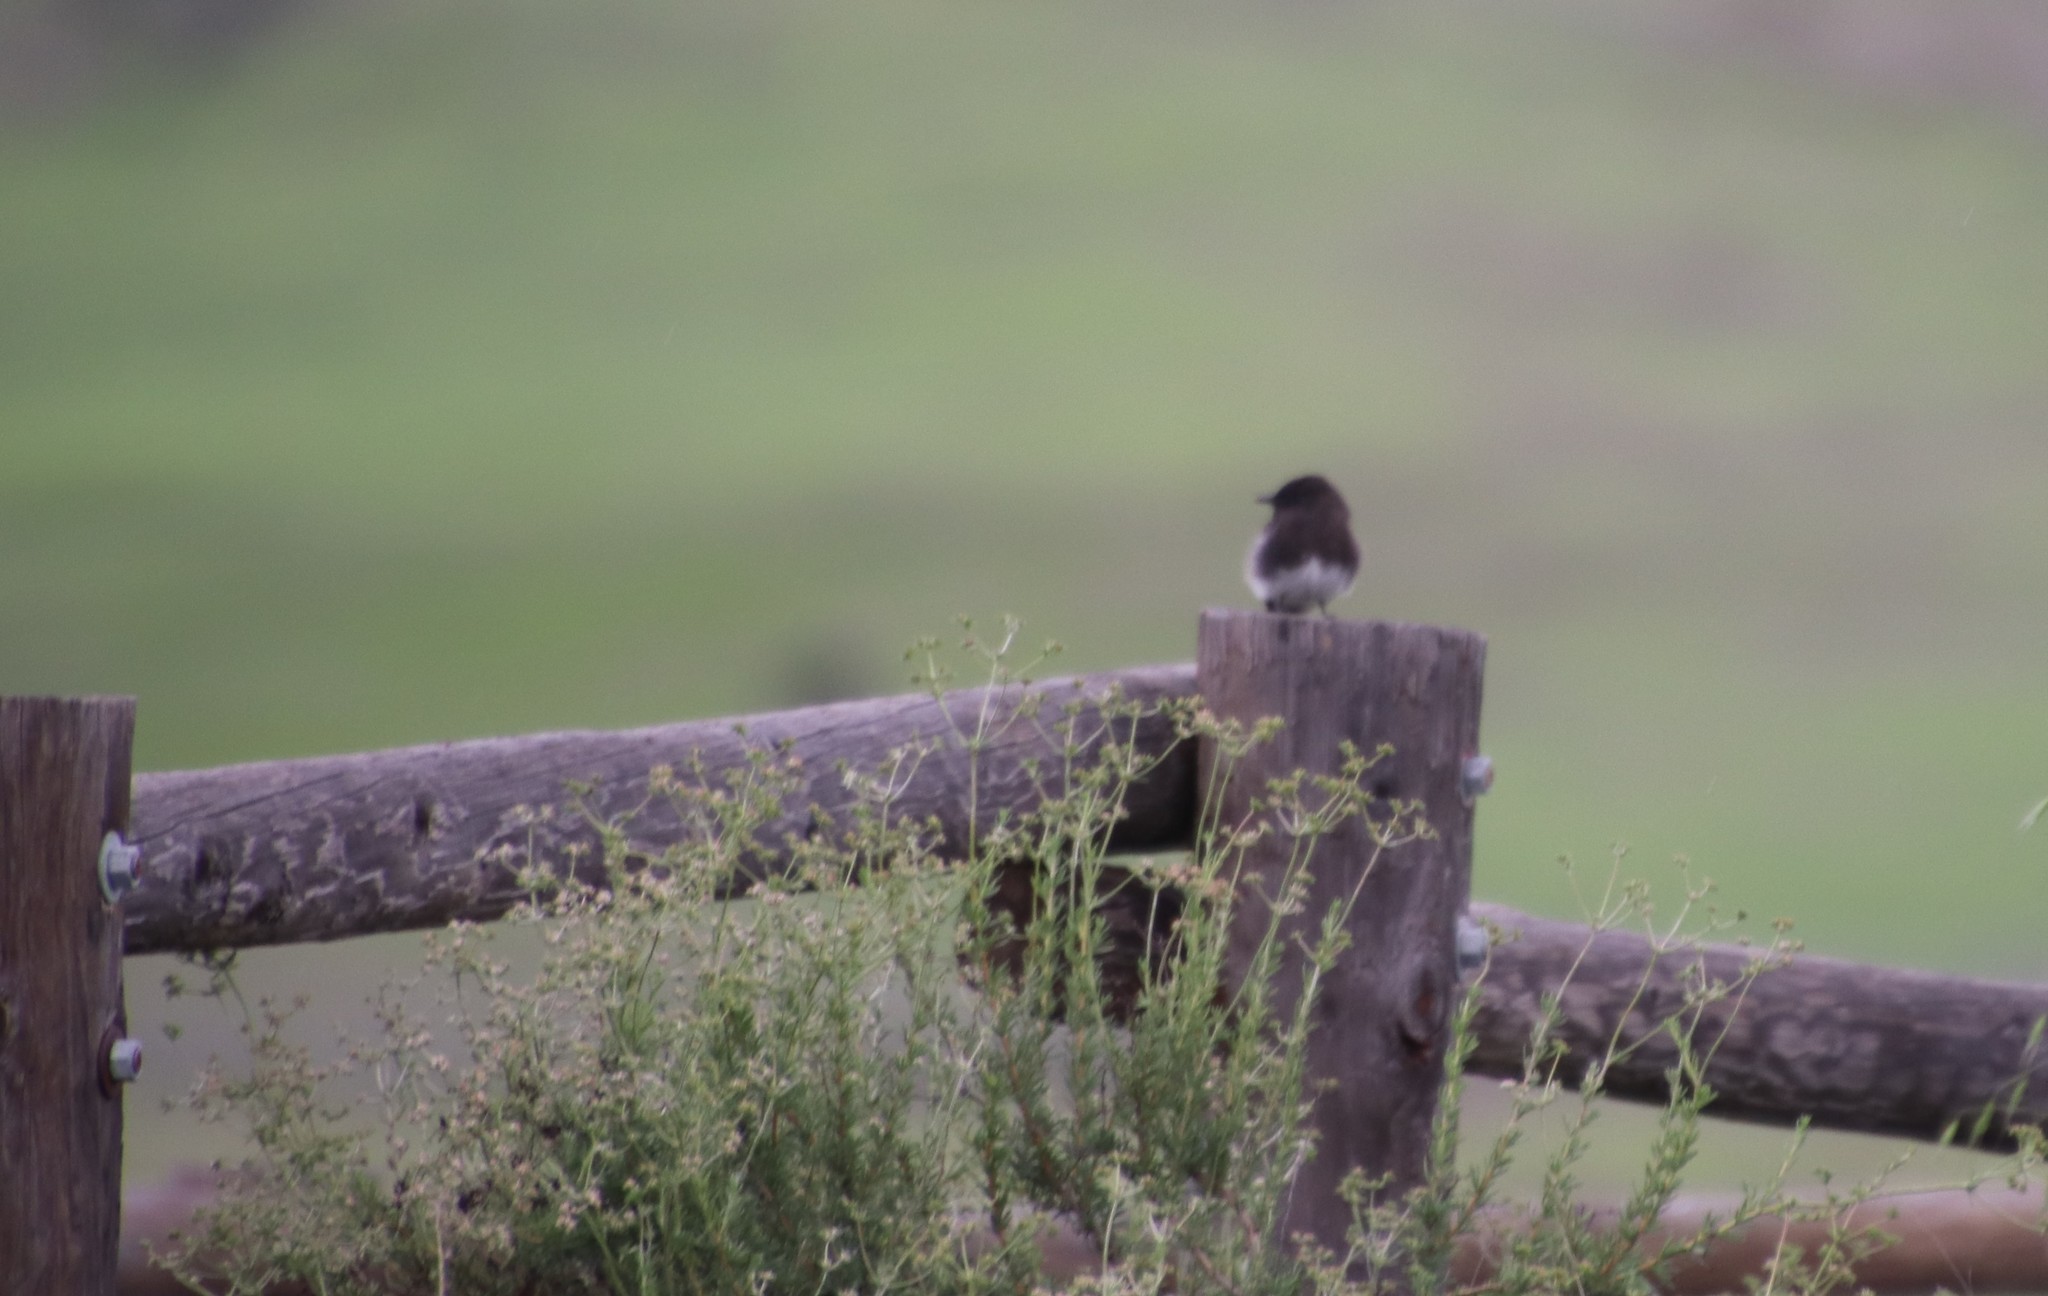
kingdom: Animalia
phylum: Chordata
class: Aves
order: Passeriformes
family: Tyrannidae
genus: Sayornis
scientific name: Sayornis nigricans
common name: Black phoebe
